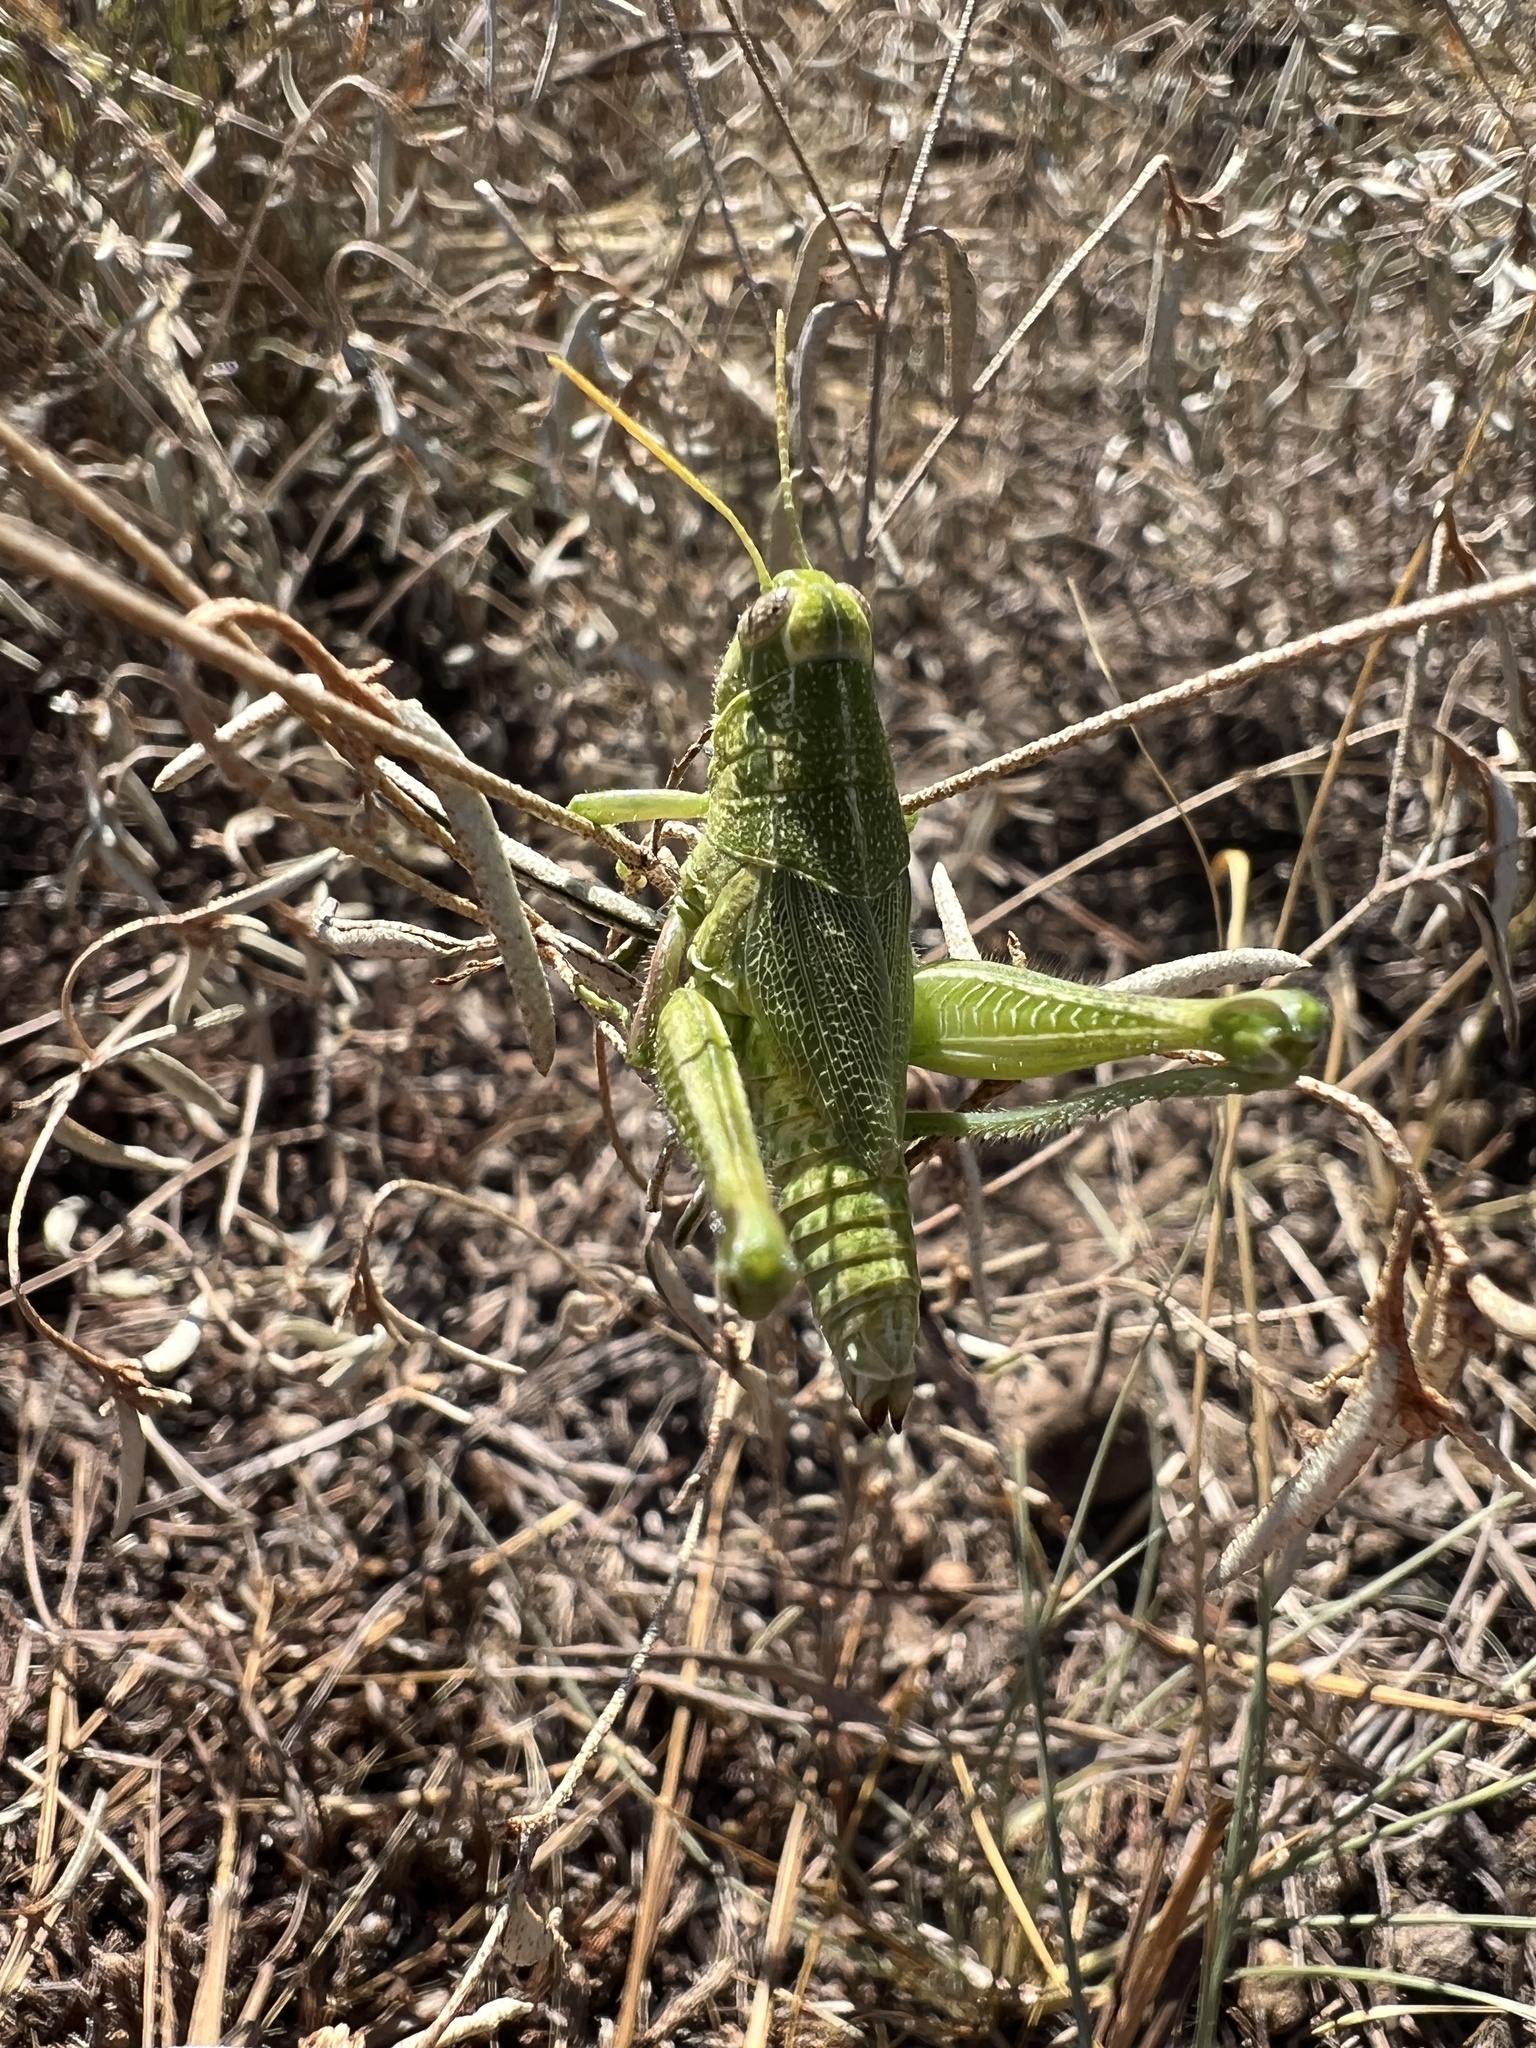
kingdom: Animalia
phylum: Arthropoda
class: Insecta
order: Orthoptera
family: Acrididae
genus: Campylacantha
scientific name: Campylacantha olivacea
